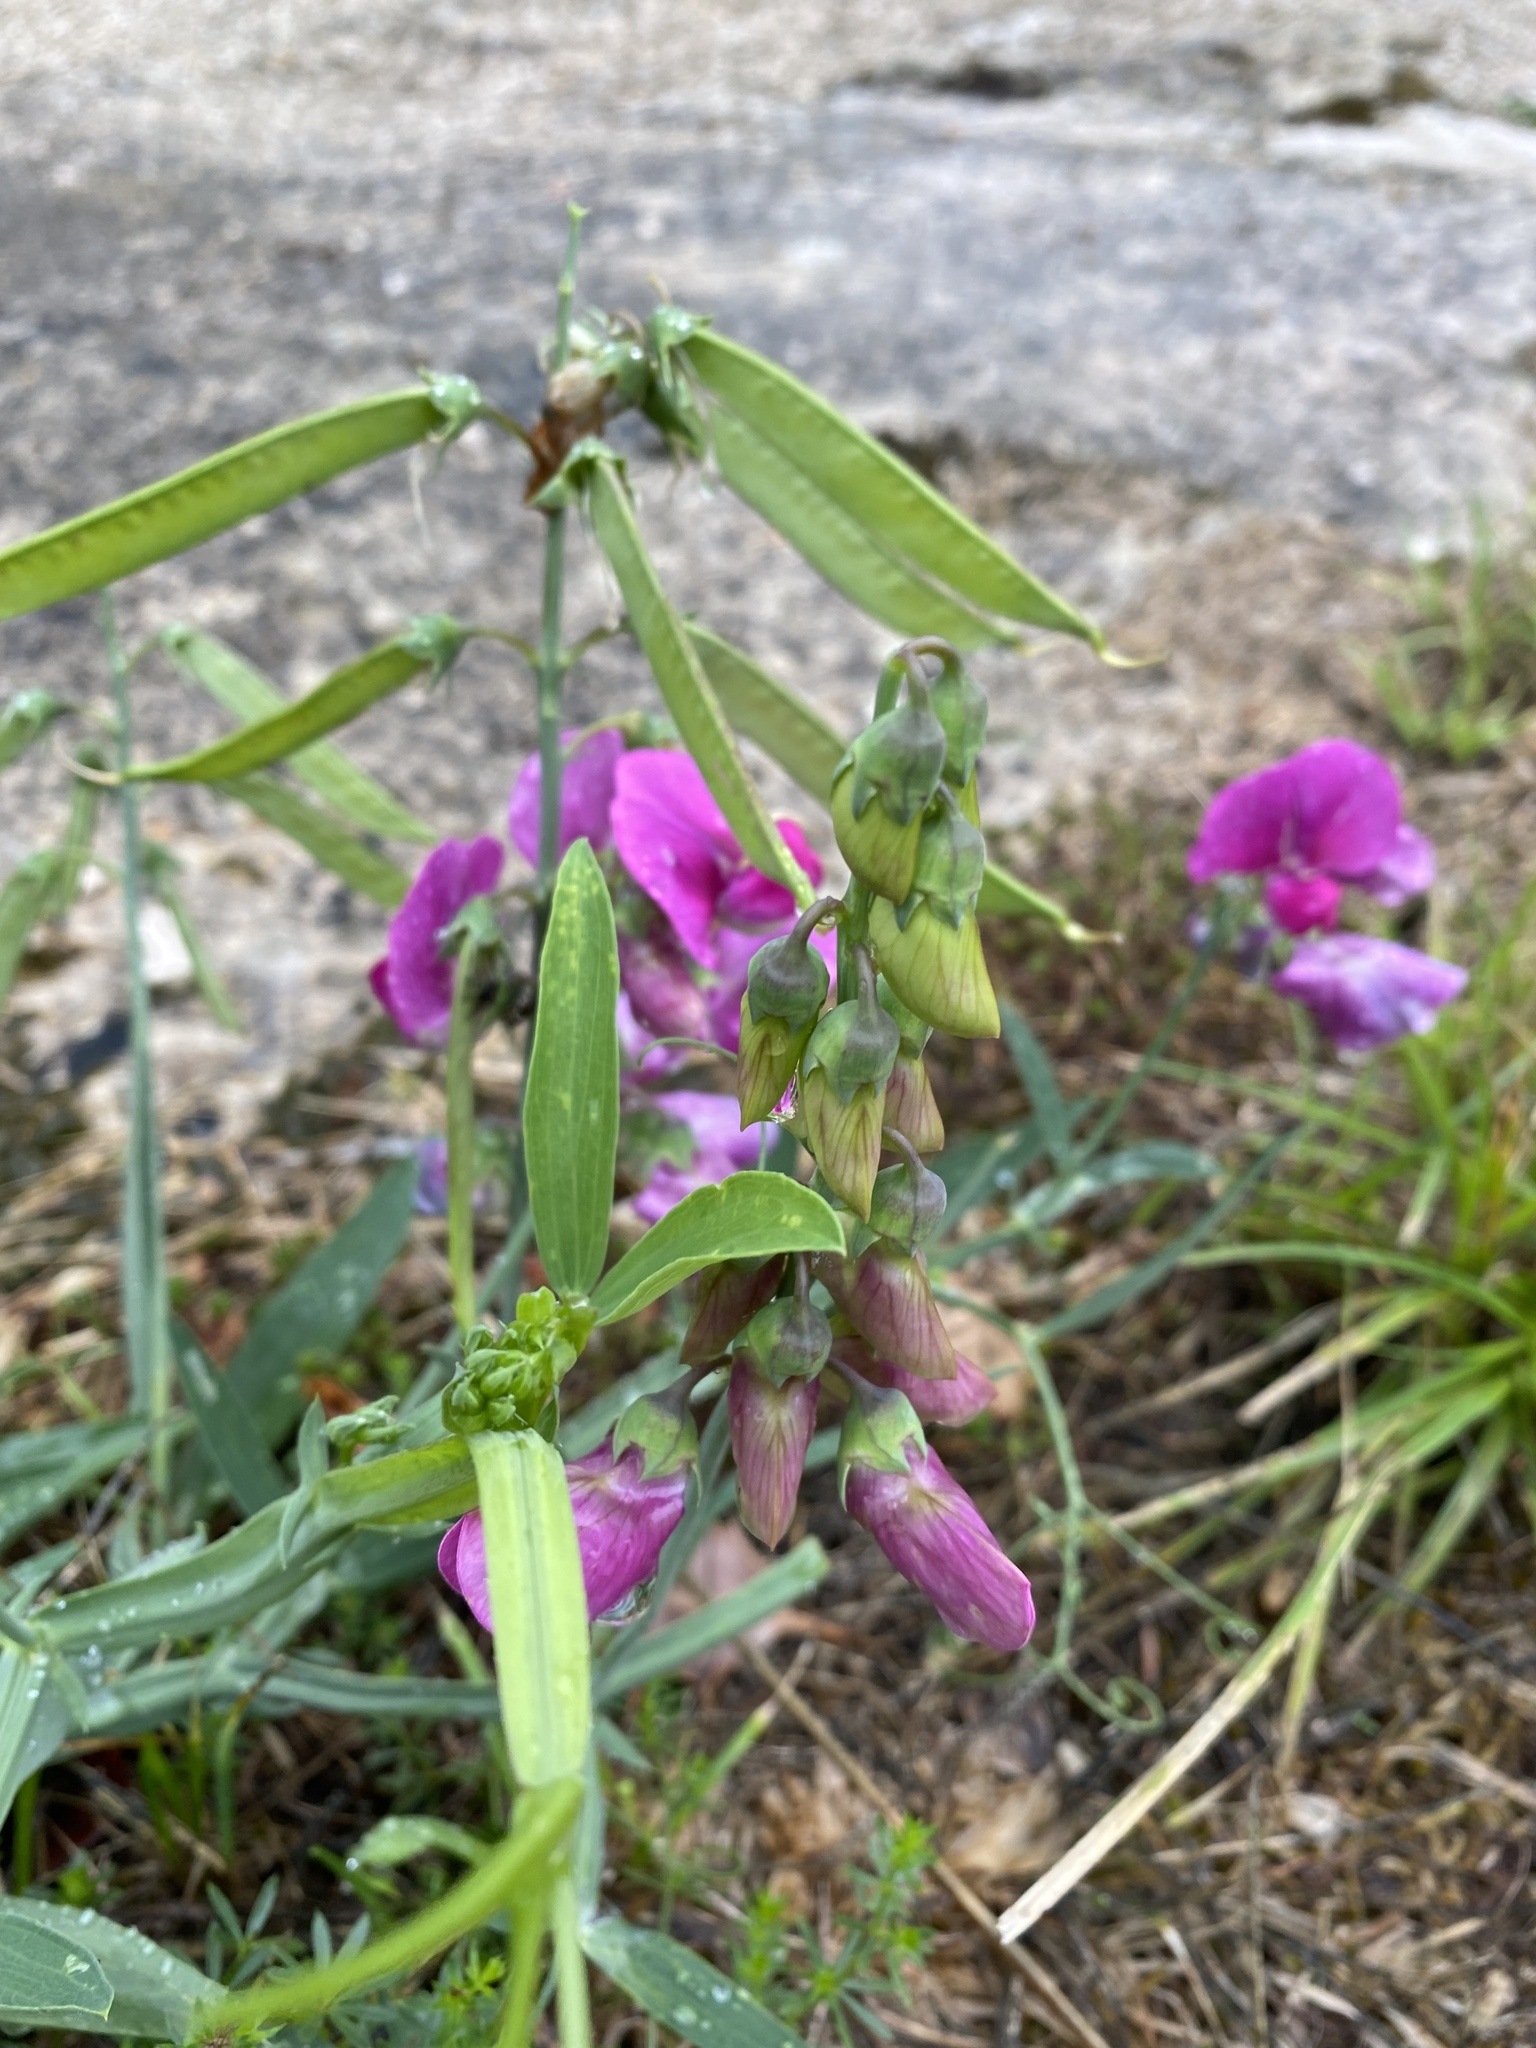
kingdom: Plantae
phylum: Tracheophyta
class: Magnoliopsida
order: Fabales
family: Fabaceae
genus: Lathyrus
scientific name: Lathyrus latifolius
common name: Perennial pea
